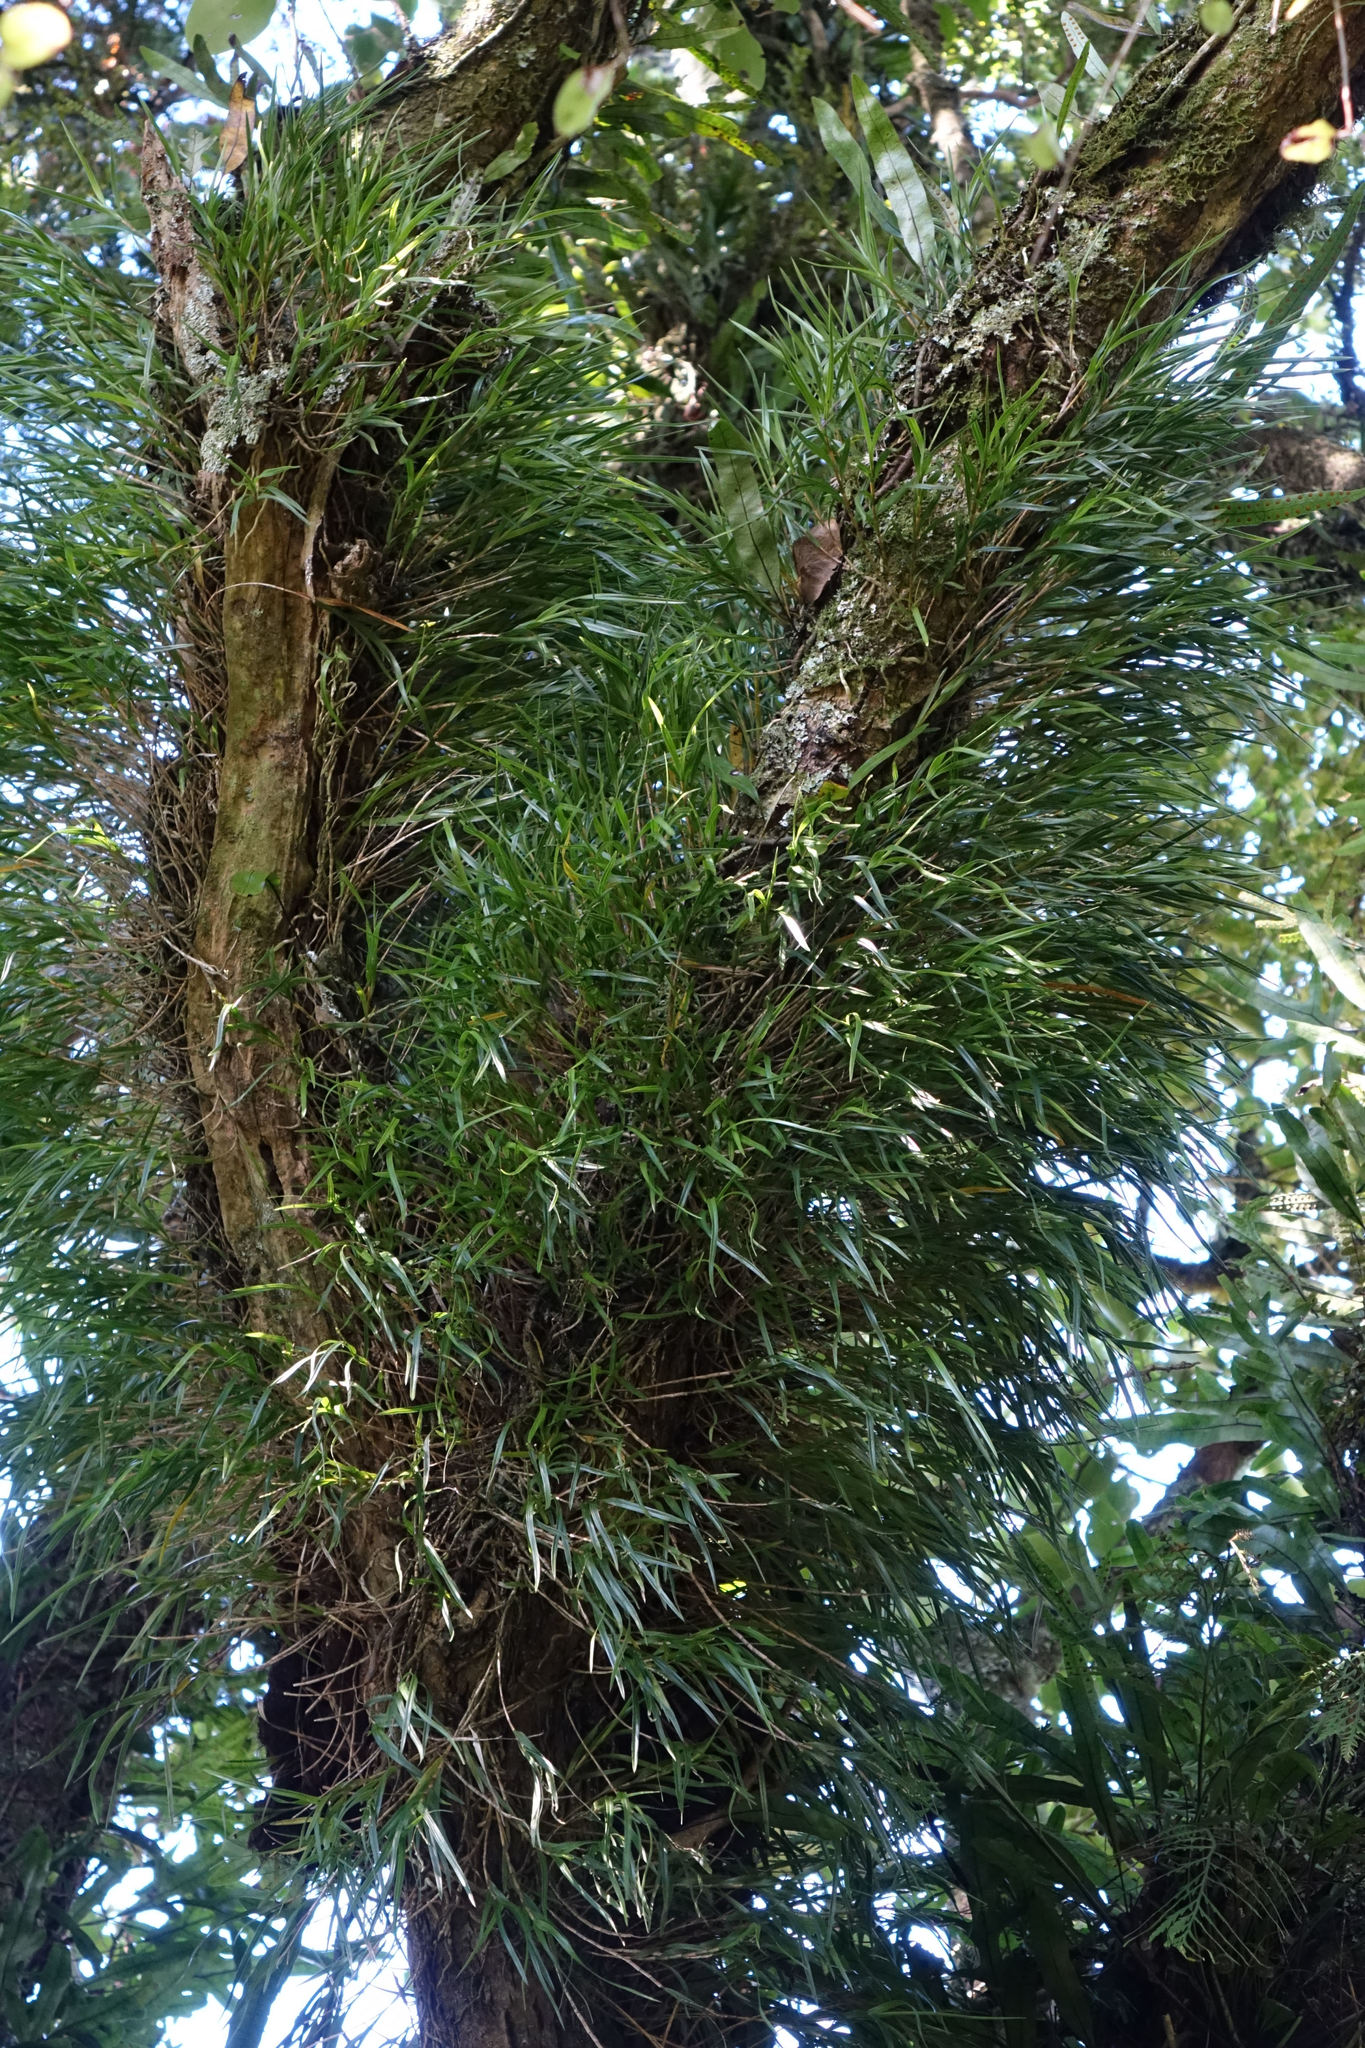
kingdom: Plantae
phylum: Tracheophyta
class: Liliopsida
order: Asparagales
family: Orchidaceae
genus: Earina
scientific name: Earina mucronata
